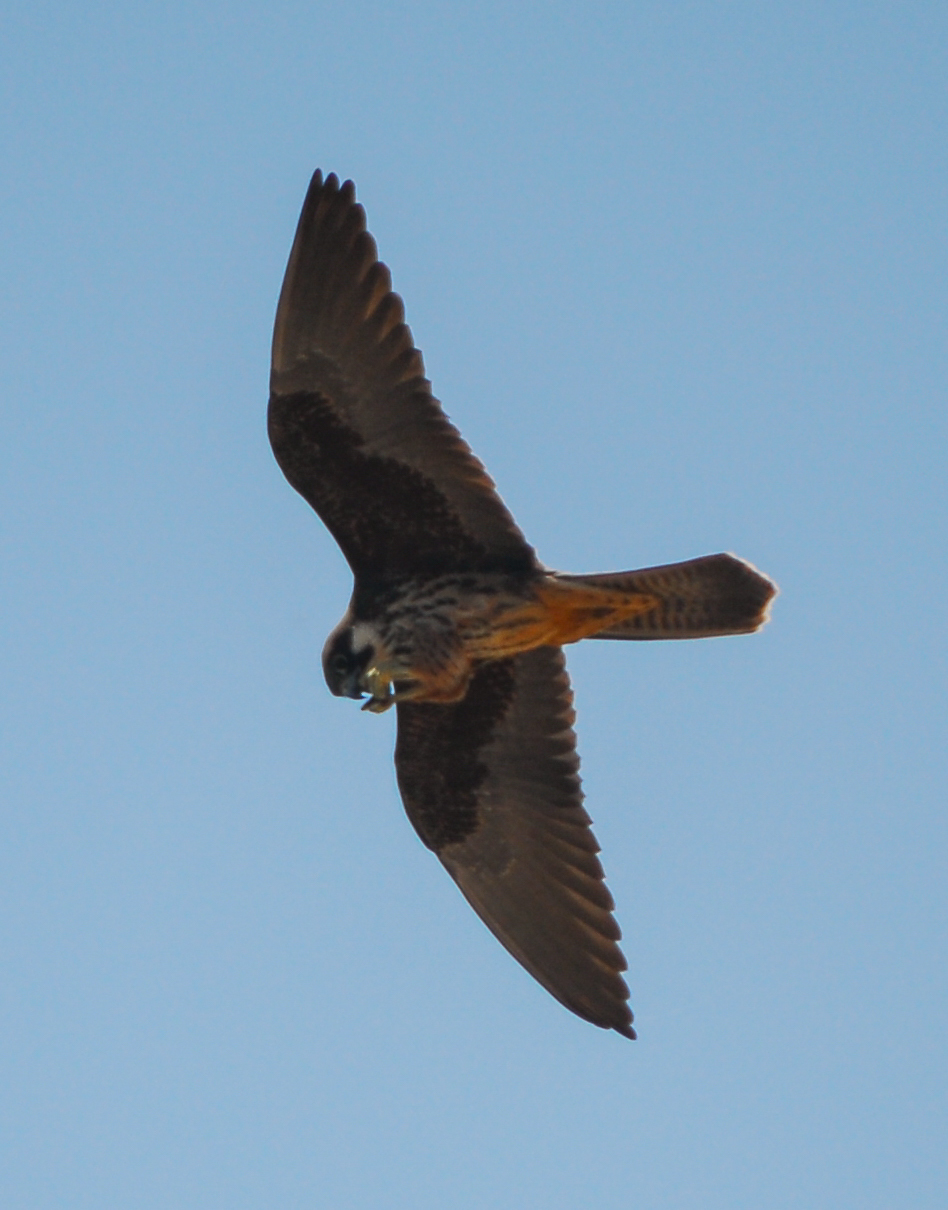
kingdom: Animalia
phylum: Chordata
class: Aves
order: Falconiformes
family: Falconidae
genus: Falco
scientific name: Falco eleonorae
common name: Eleonora's falcon
